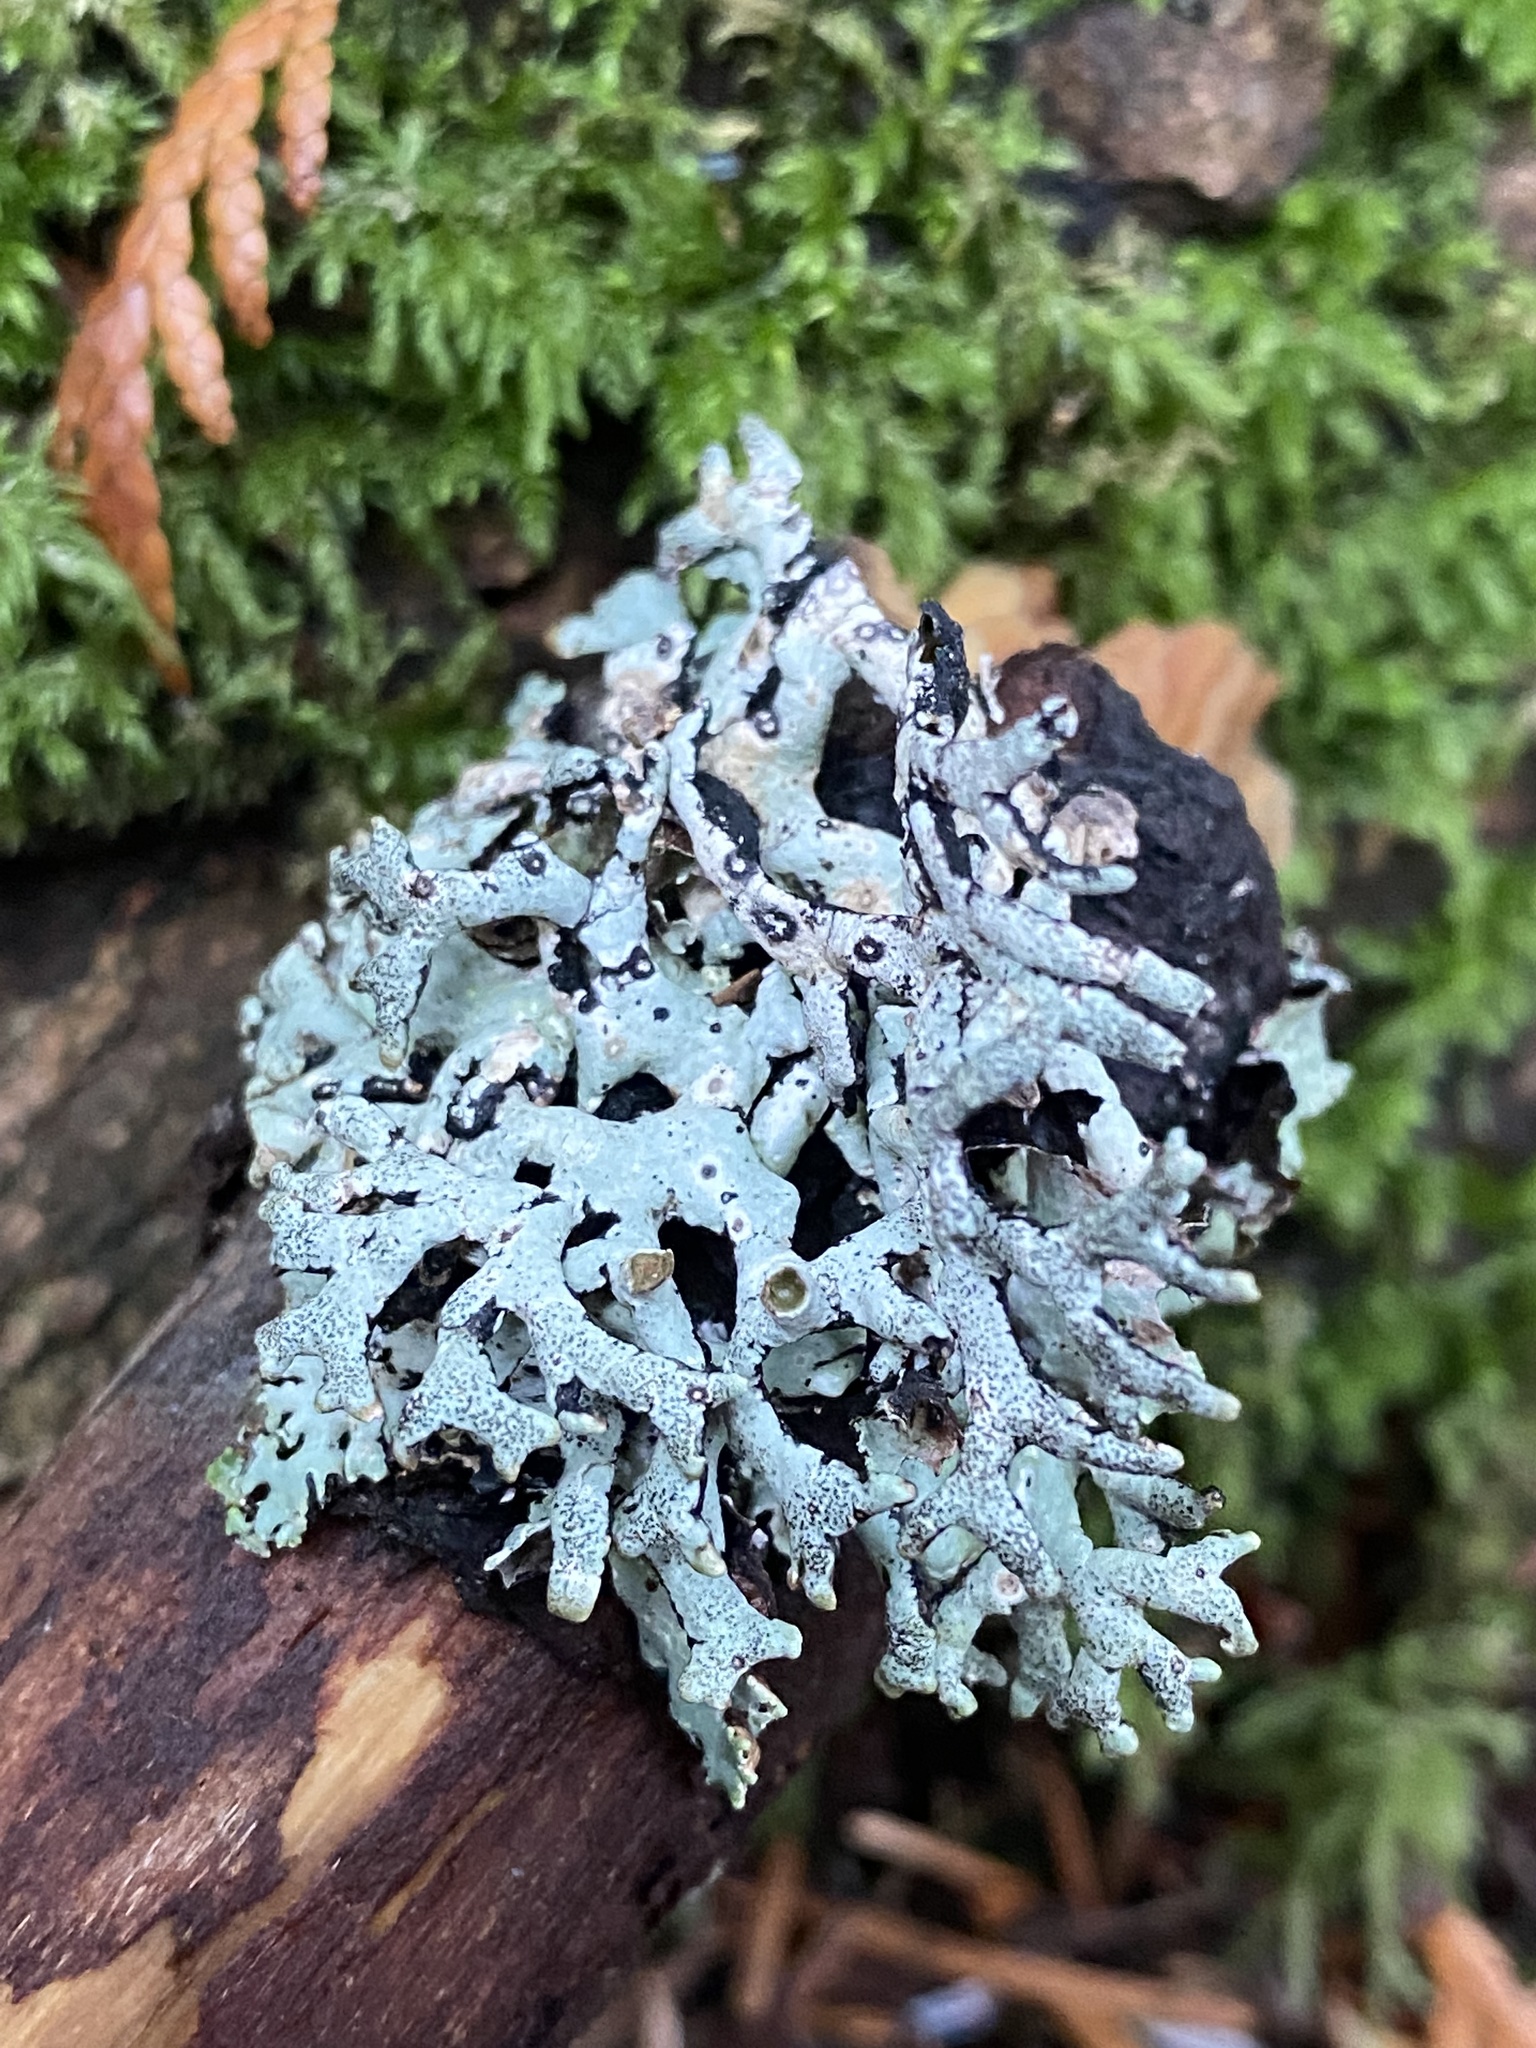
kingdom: Fungi
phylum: Ascomycota
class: Lecanoromycetes
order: Lecanorales
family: Parmeliaceae
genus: Hypogymnia
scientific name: Hypogymnia imshaugii
